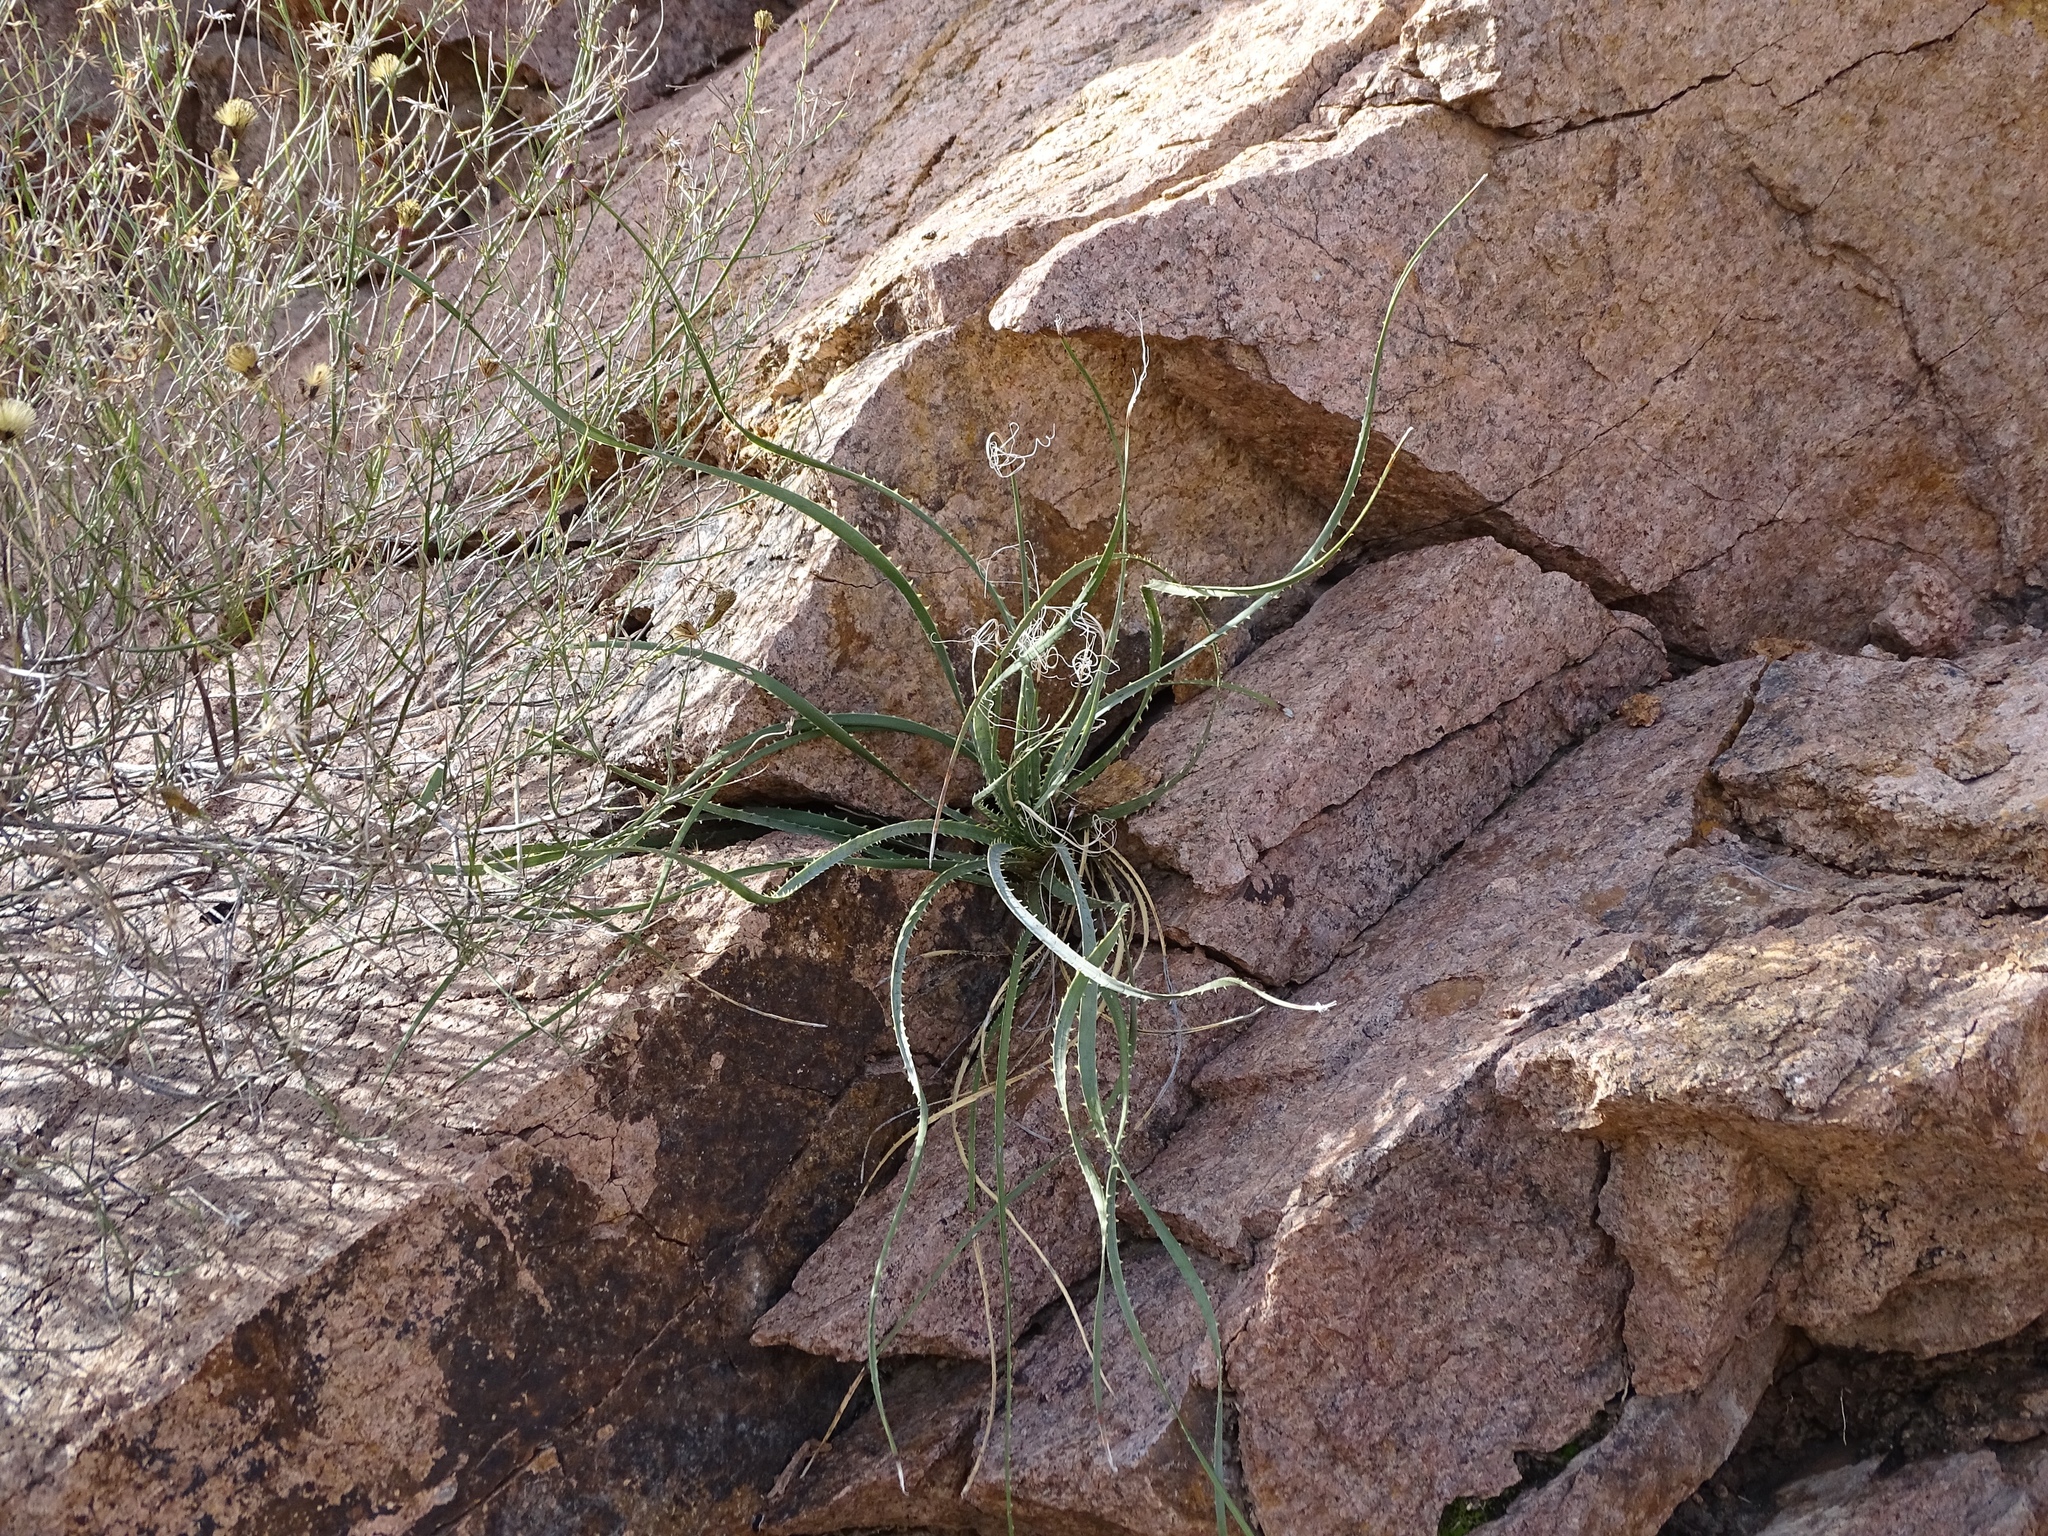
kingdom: Plantae
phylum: Tracheophyta
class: Liliopsida
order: Asparagales
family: Asparagaceae
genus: Dasylirion
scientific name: Dasylirion wheeleri
